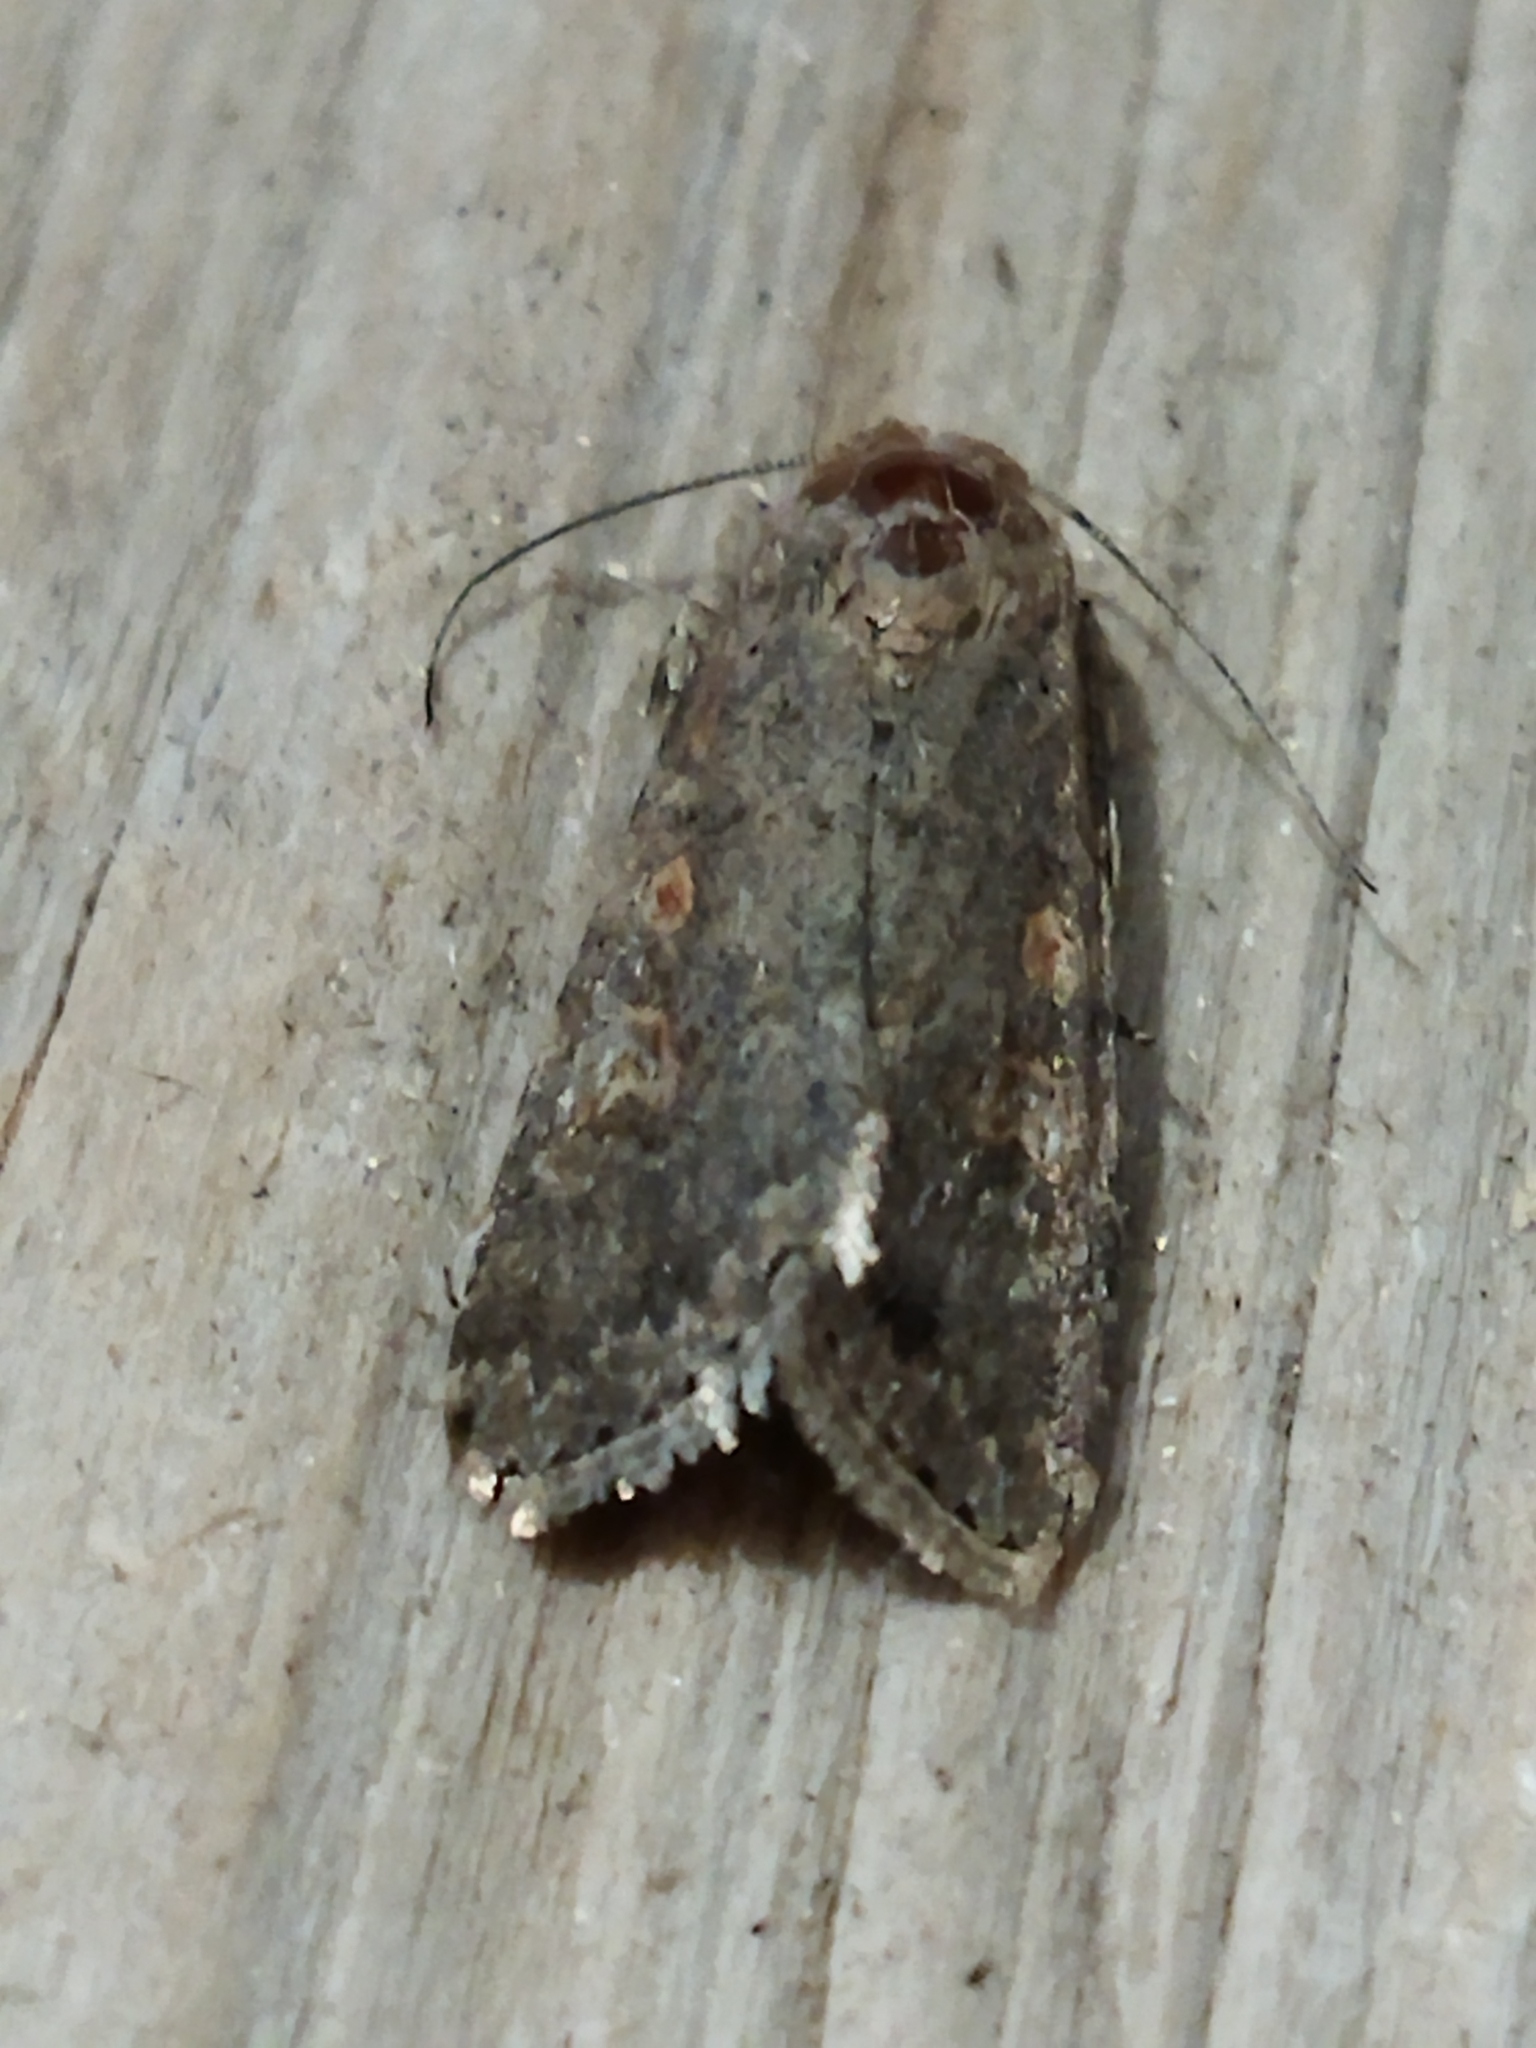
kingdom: Animalia
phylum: Arthropoda
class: Insecta
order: Lepidoptera
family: Noctuidae
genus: Spodoptera
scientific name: Spodoptera exigua
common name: Beet armyworm
